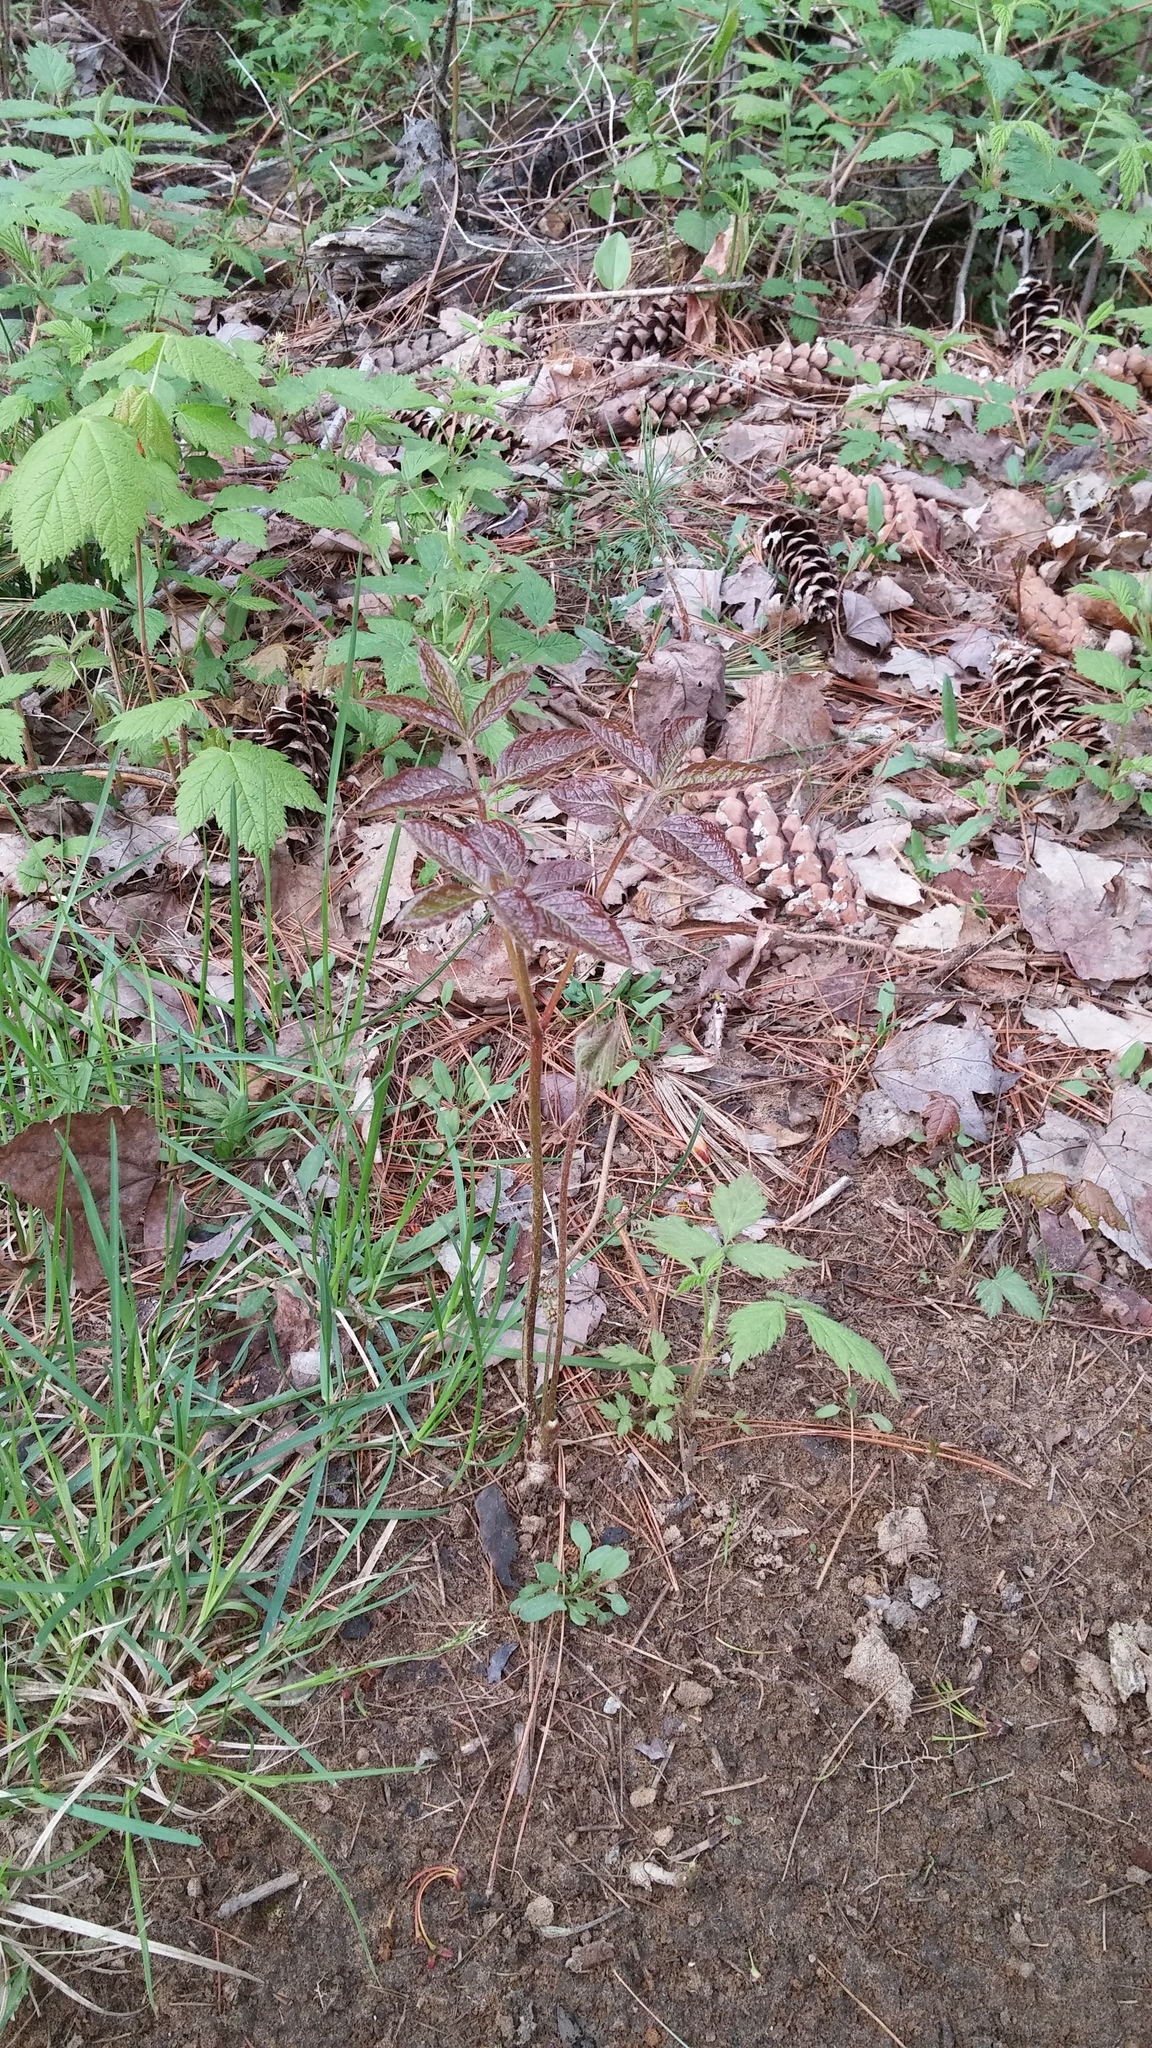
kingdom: Plantae
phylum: Tracheophyta
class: Magnoliopsida
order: Apiales
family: Araliaceae
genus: Aralia
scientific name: Aralia nudicaulis
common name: Wild sarsaparilla
